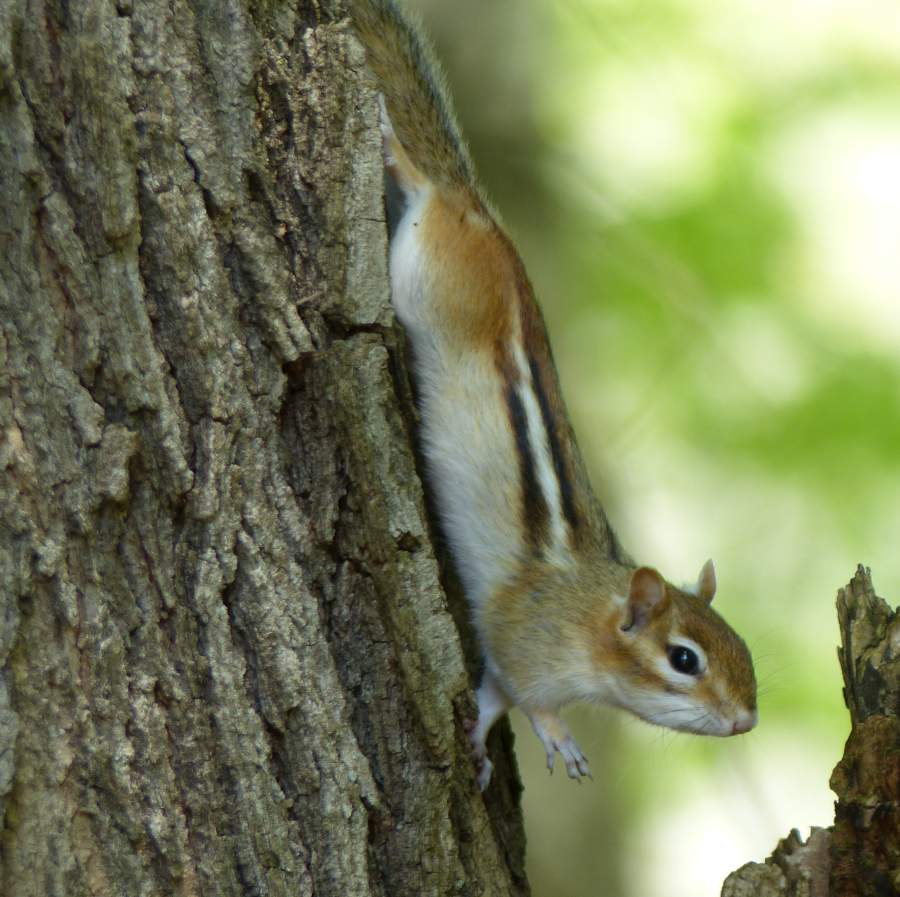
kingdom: Animalia
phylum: Chordata
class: Mammalia
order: Rodentia
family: Sciuridae
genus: Tamias
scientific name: Tamias striatus
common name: Eastern chipmunk
